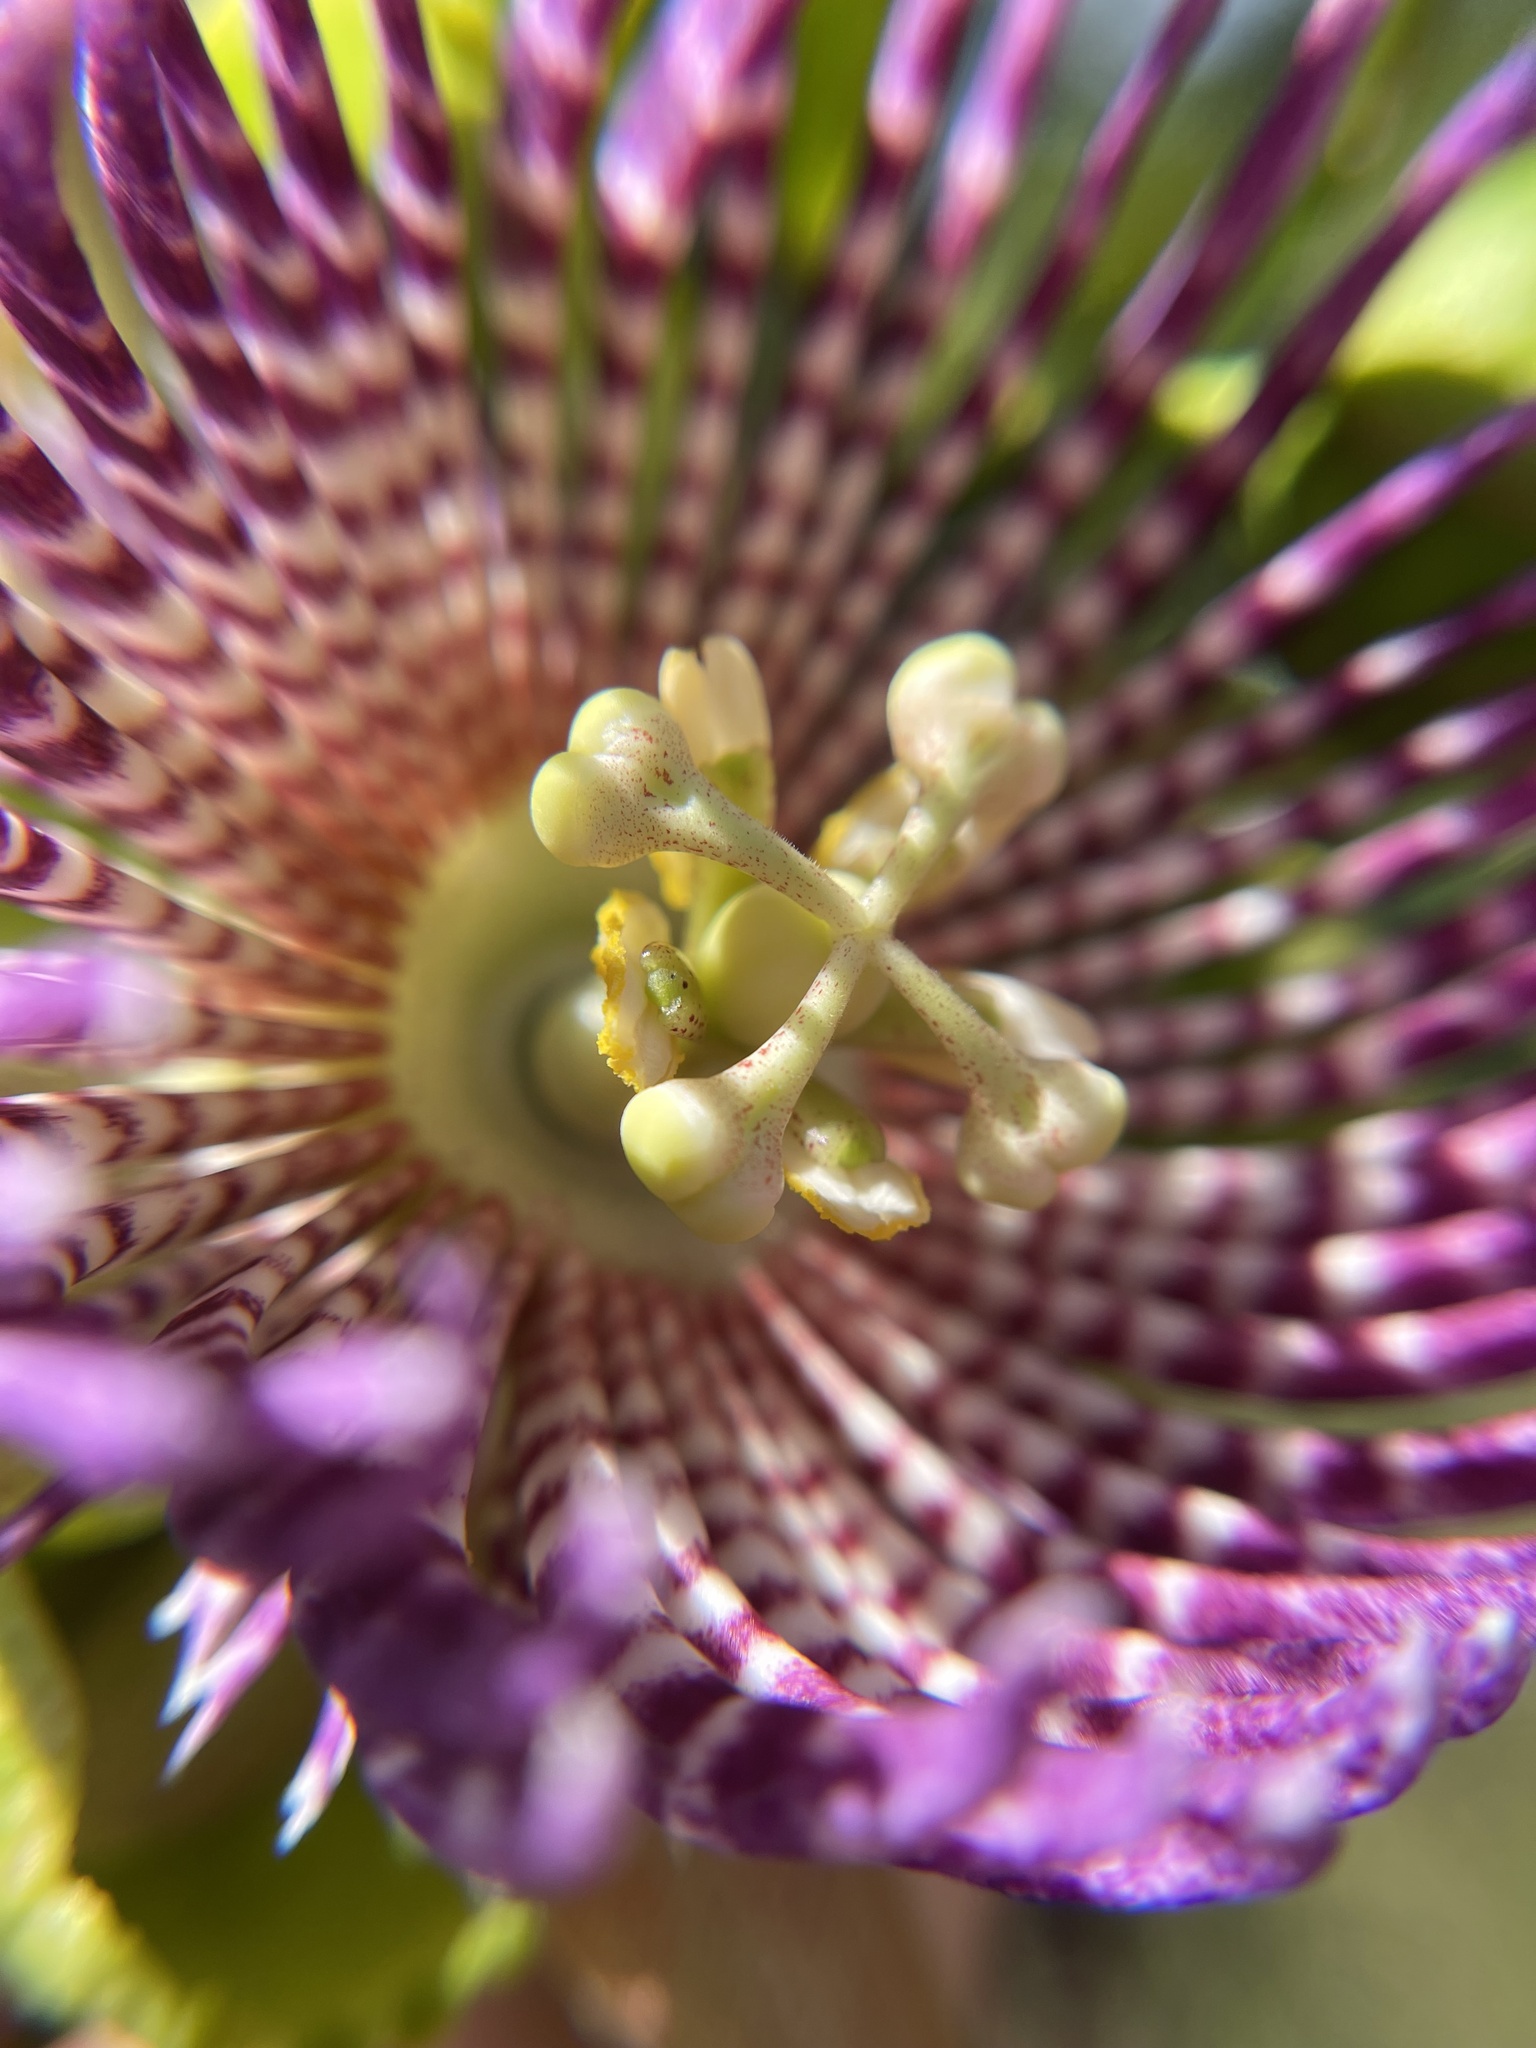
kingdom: Plantae
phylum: Tracheophyta
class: Magnoliopsida
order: Malpighiales
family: Passifloraceae
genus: Passiflora
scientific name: Passiflora laurifolia
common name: Bell apple
